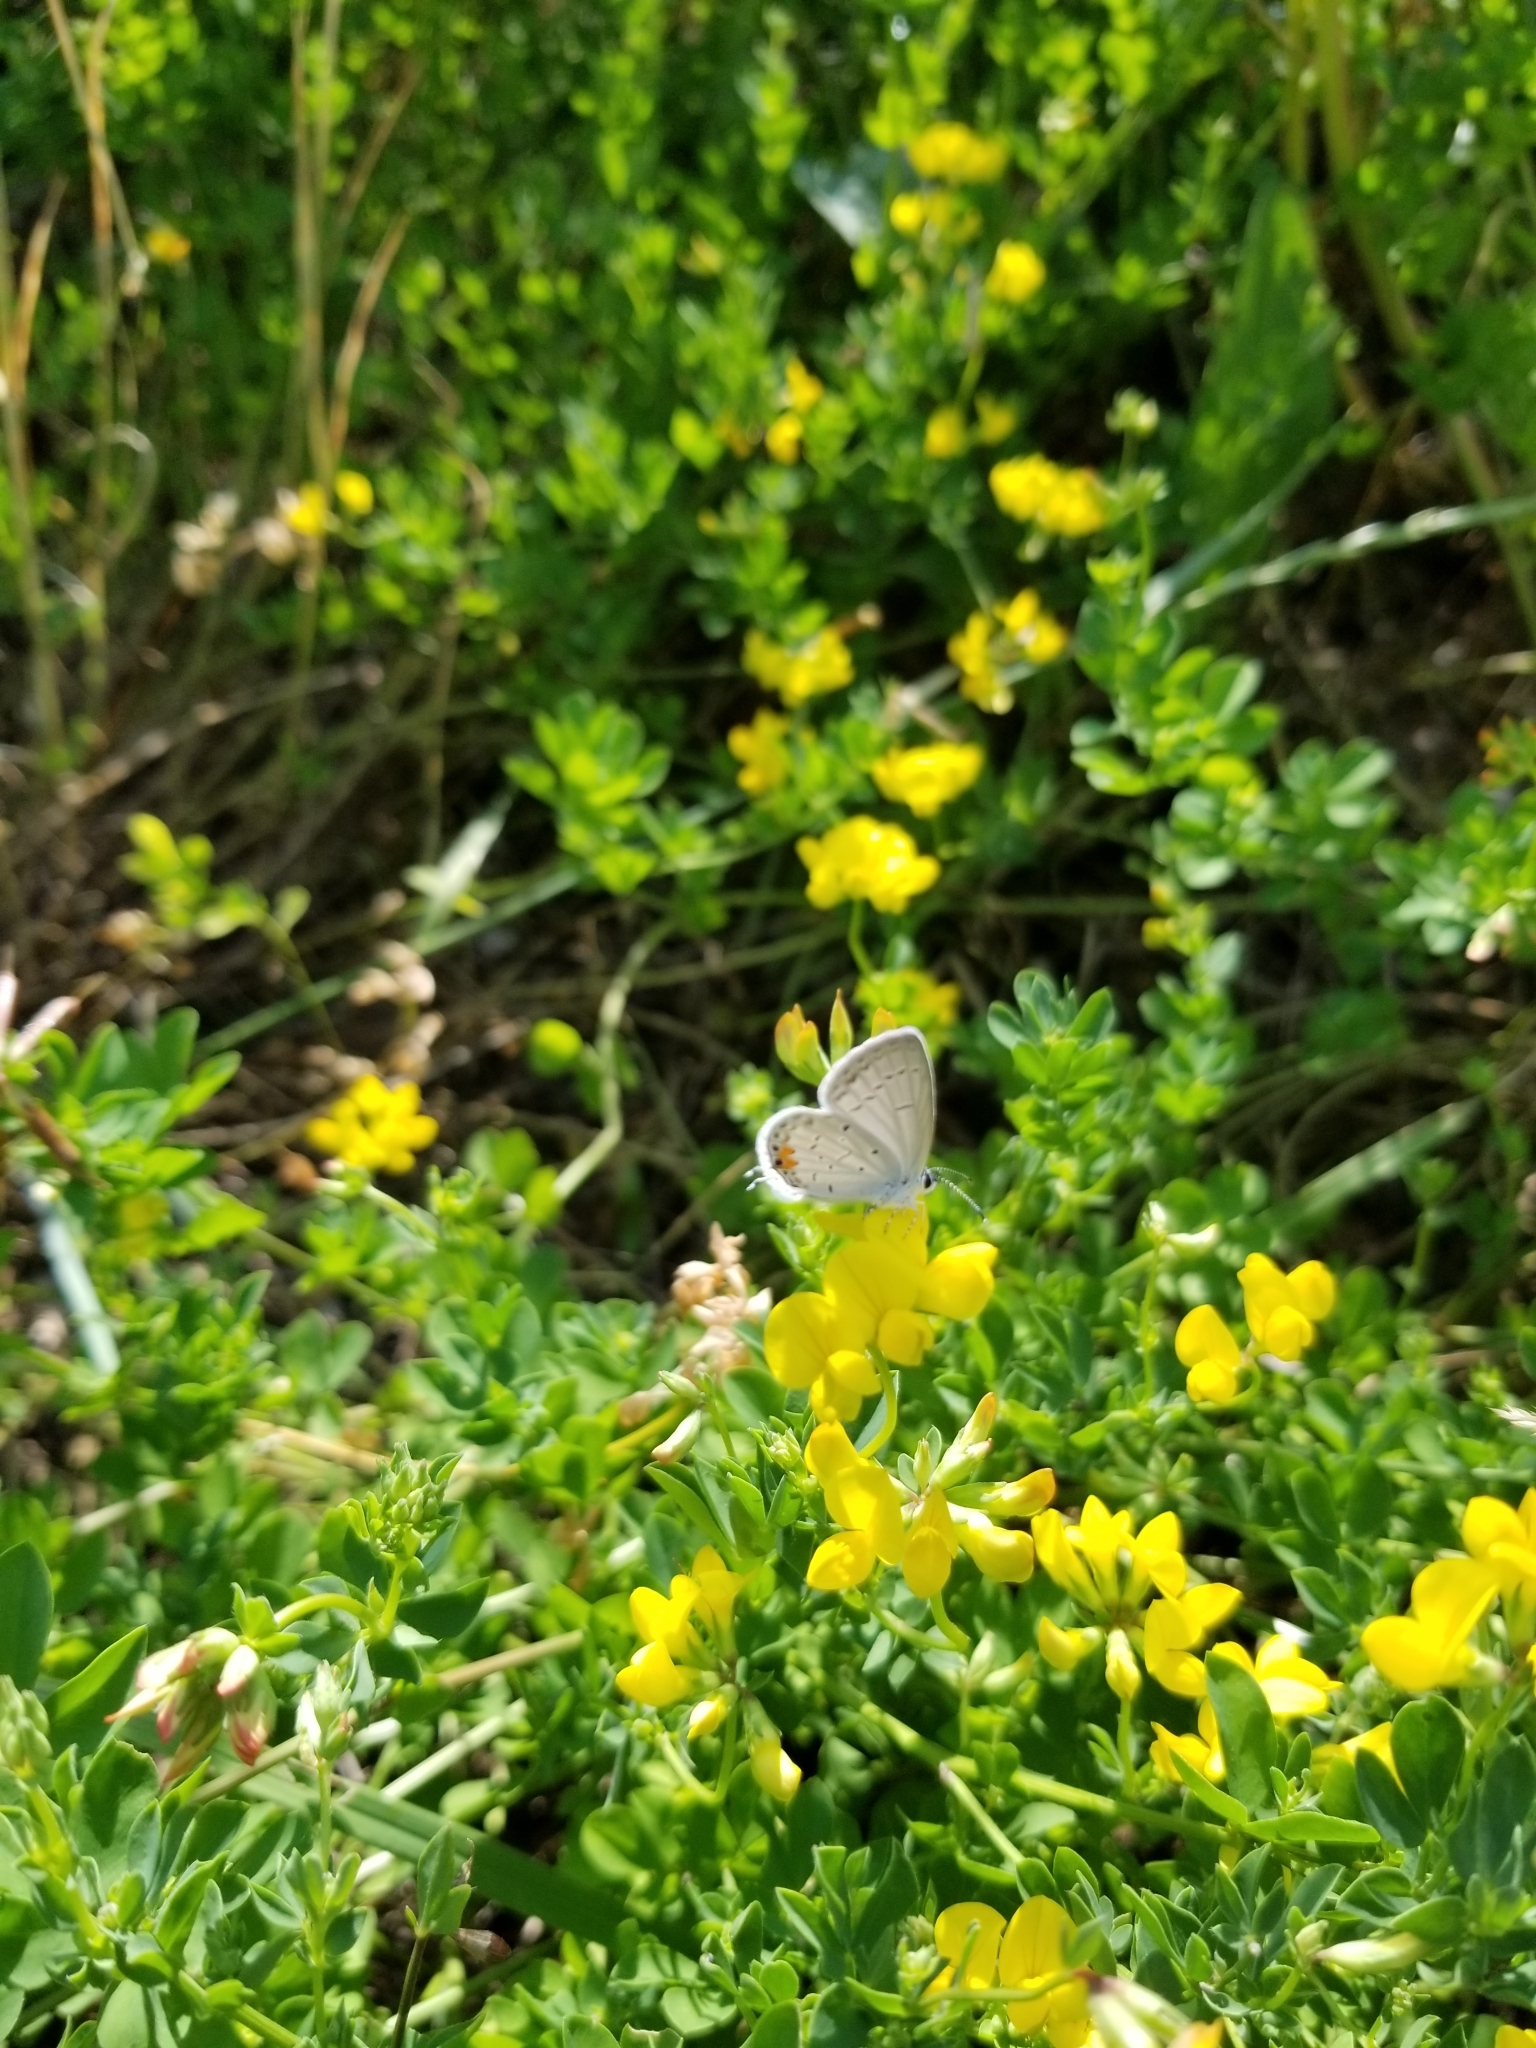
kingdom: Animalia
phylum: Arthropoda
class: Insecta
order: Lepidoptera
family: Lycaenidae
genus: Elkalyce
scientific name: Elkalyce comyntas
